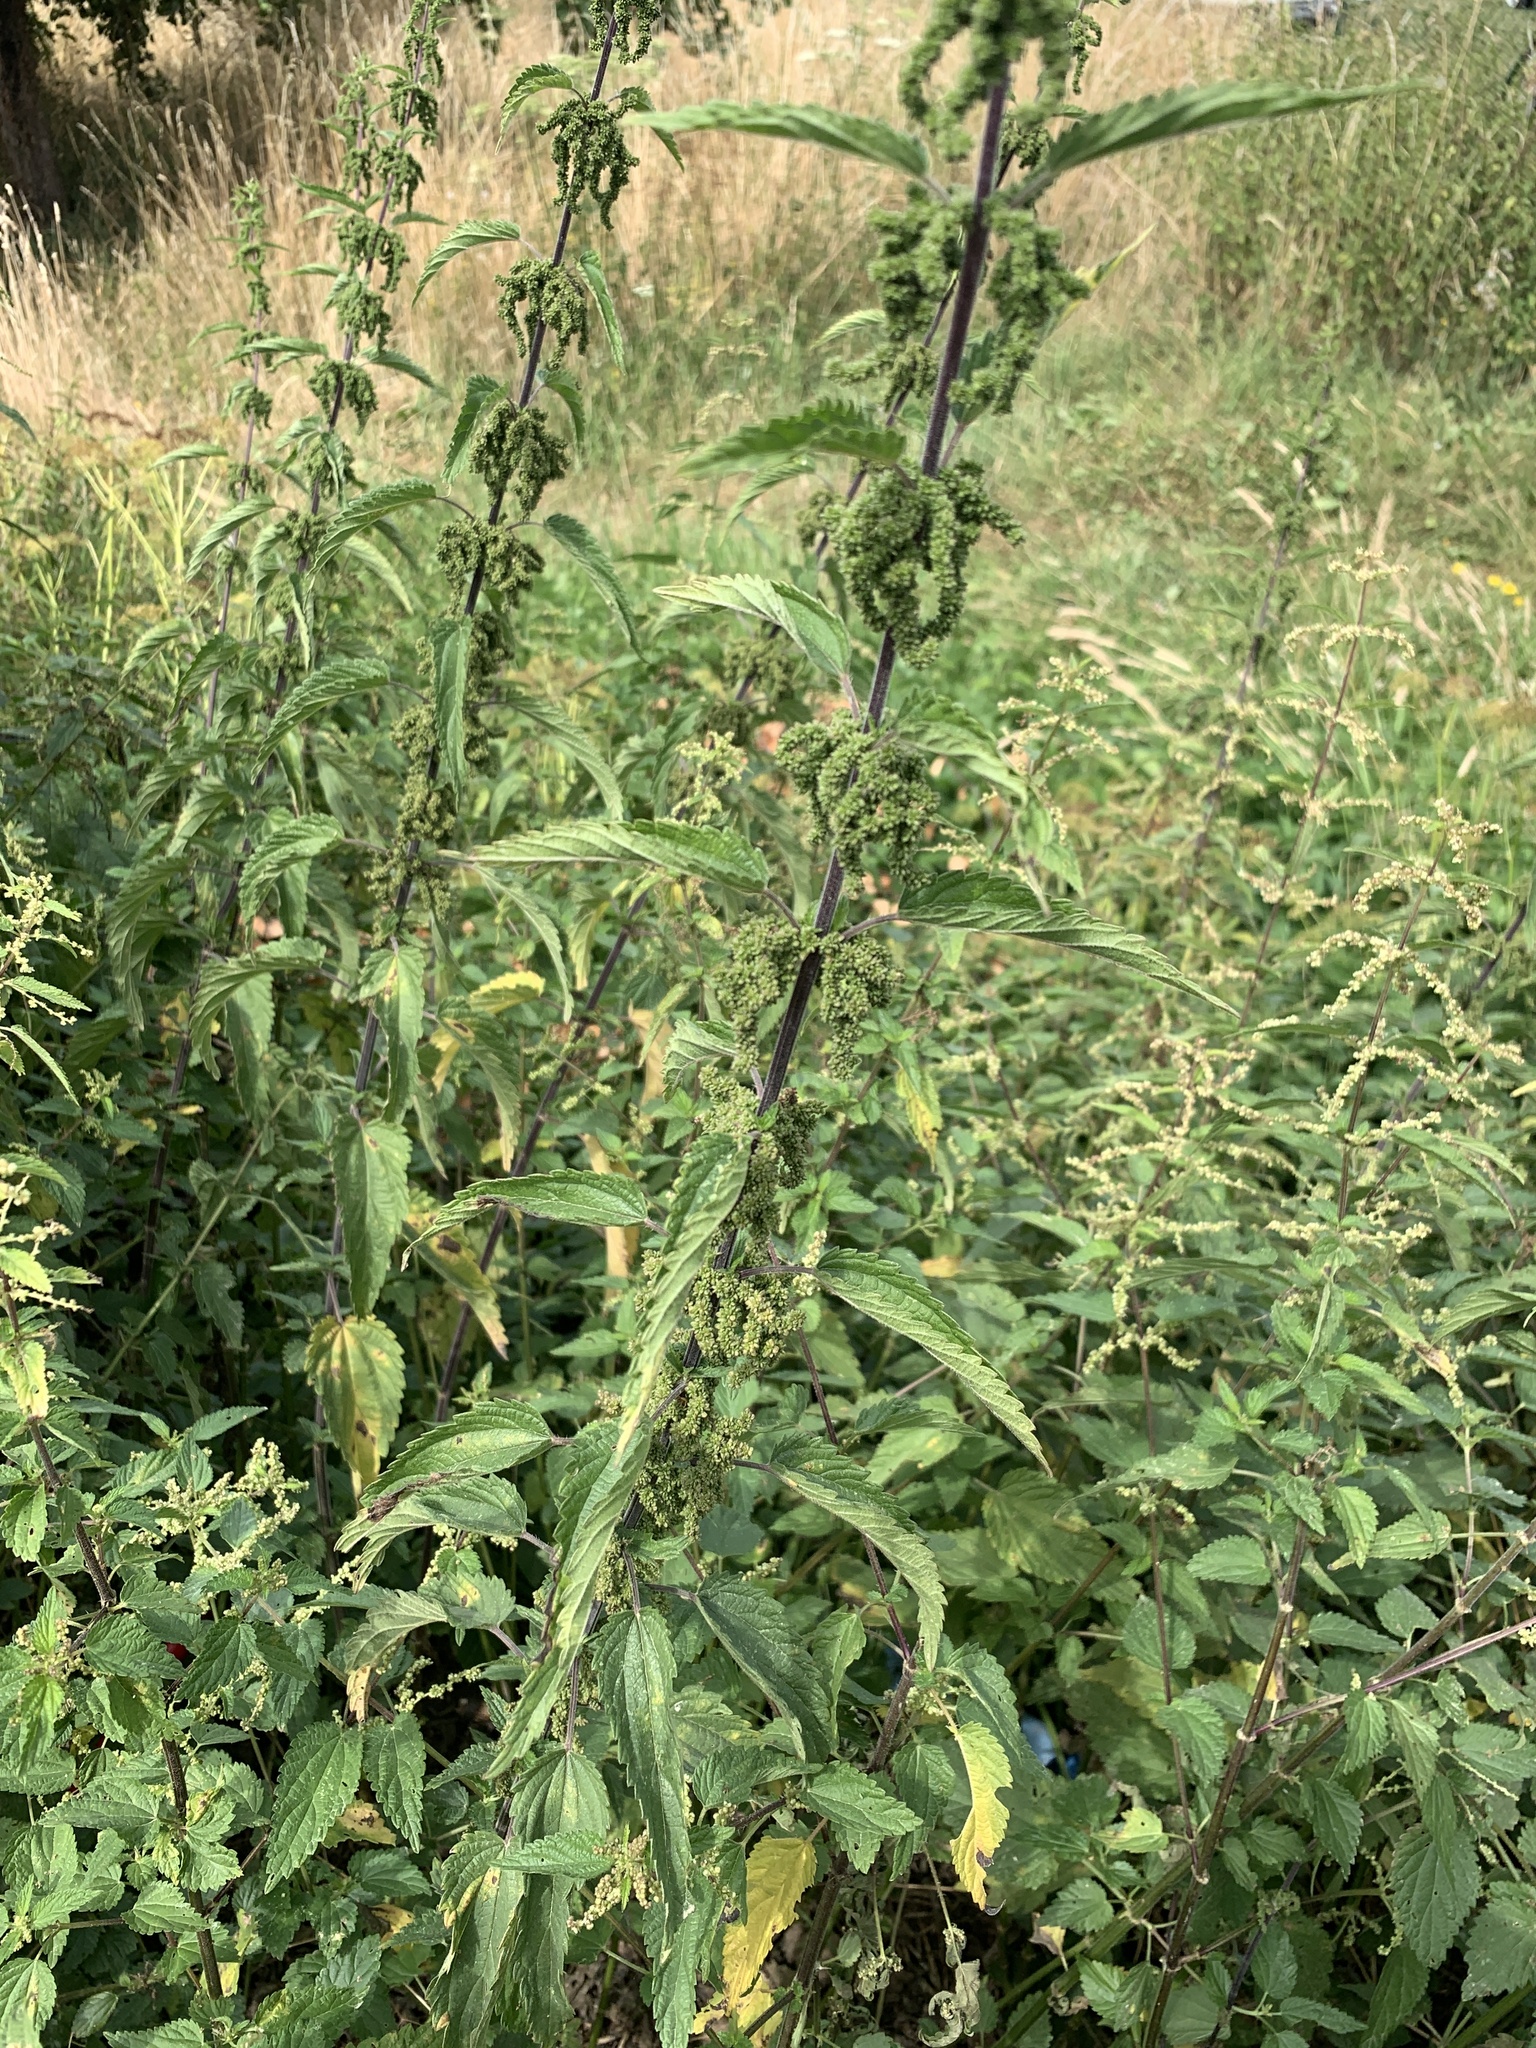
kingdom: Plantae
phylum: Tracheophyta
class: Magnoliopsida
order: Rosales
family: Urticaceae
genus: Urtica
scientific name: Urtica dioica
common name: Common nettle
